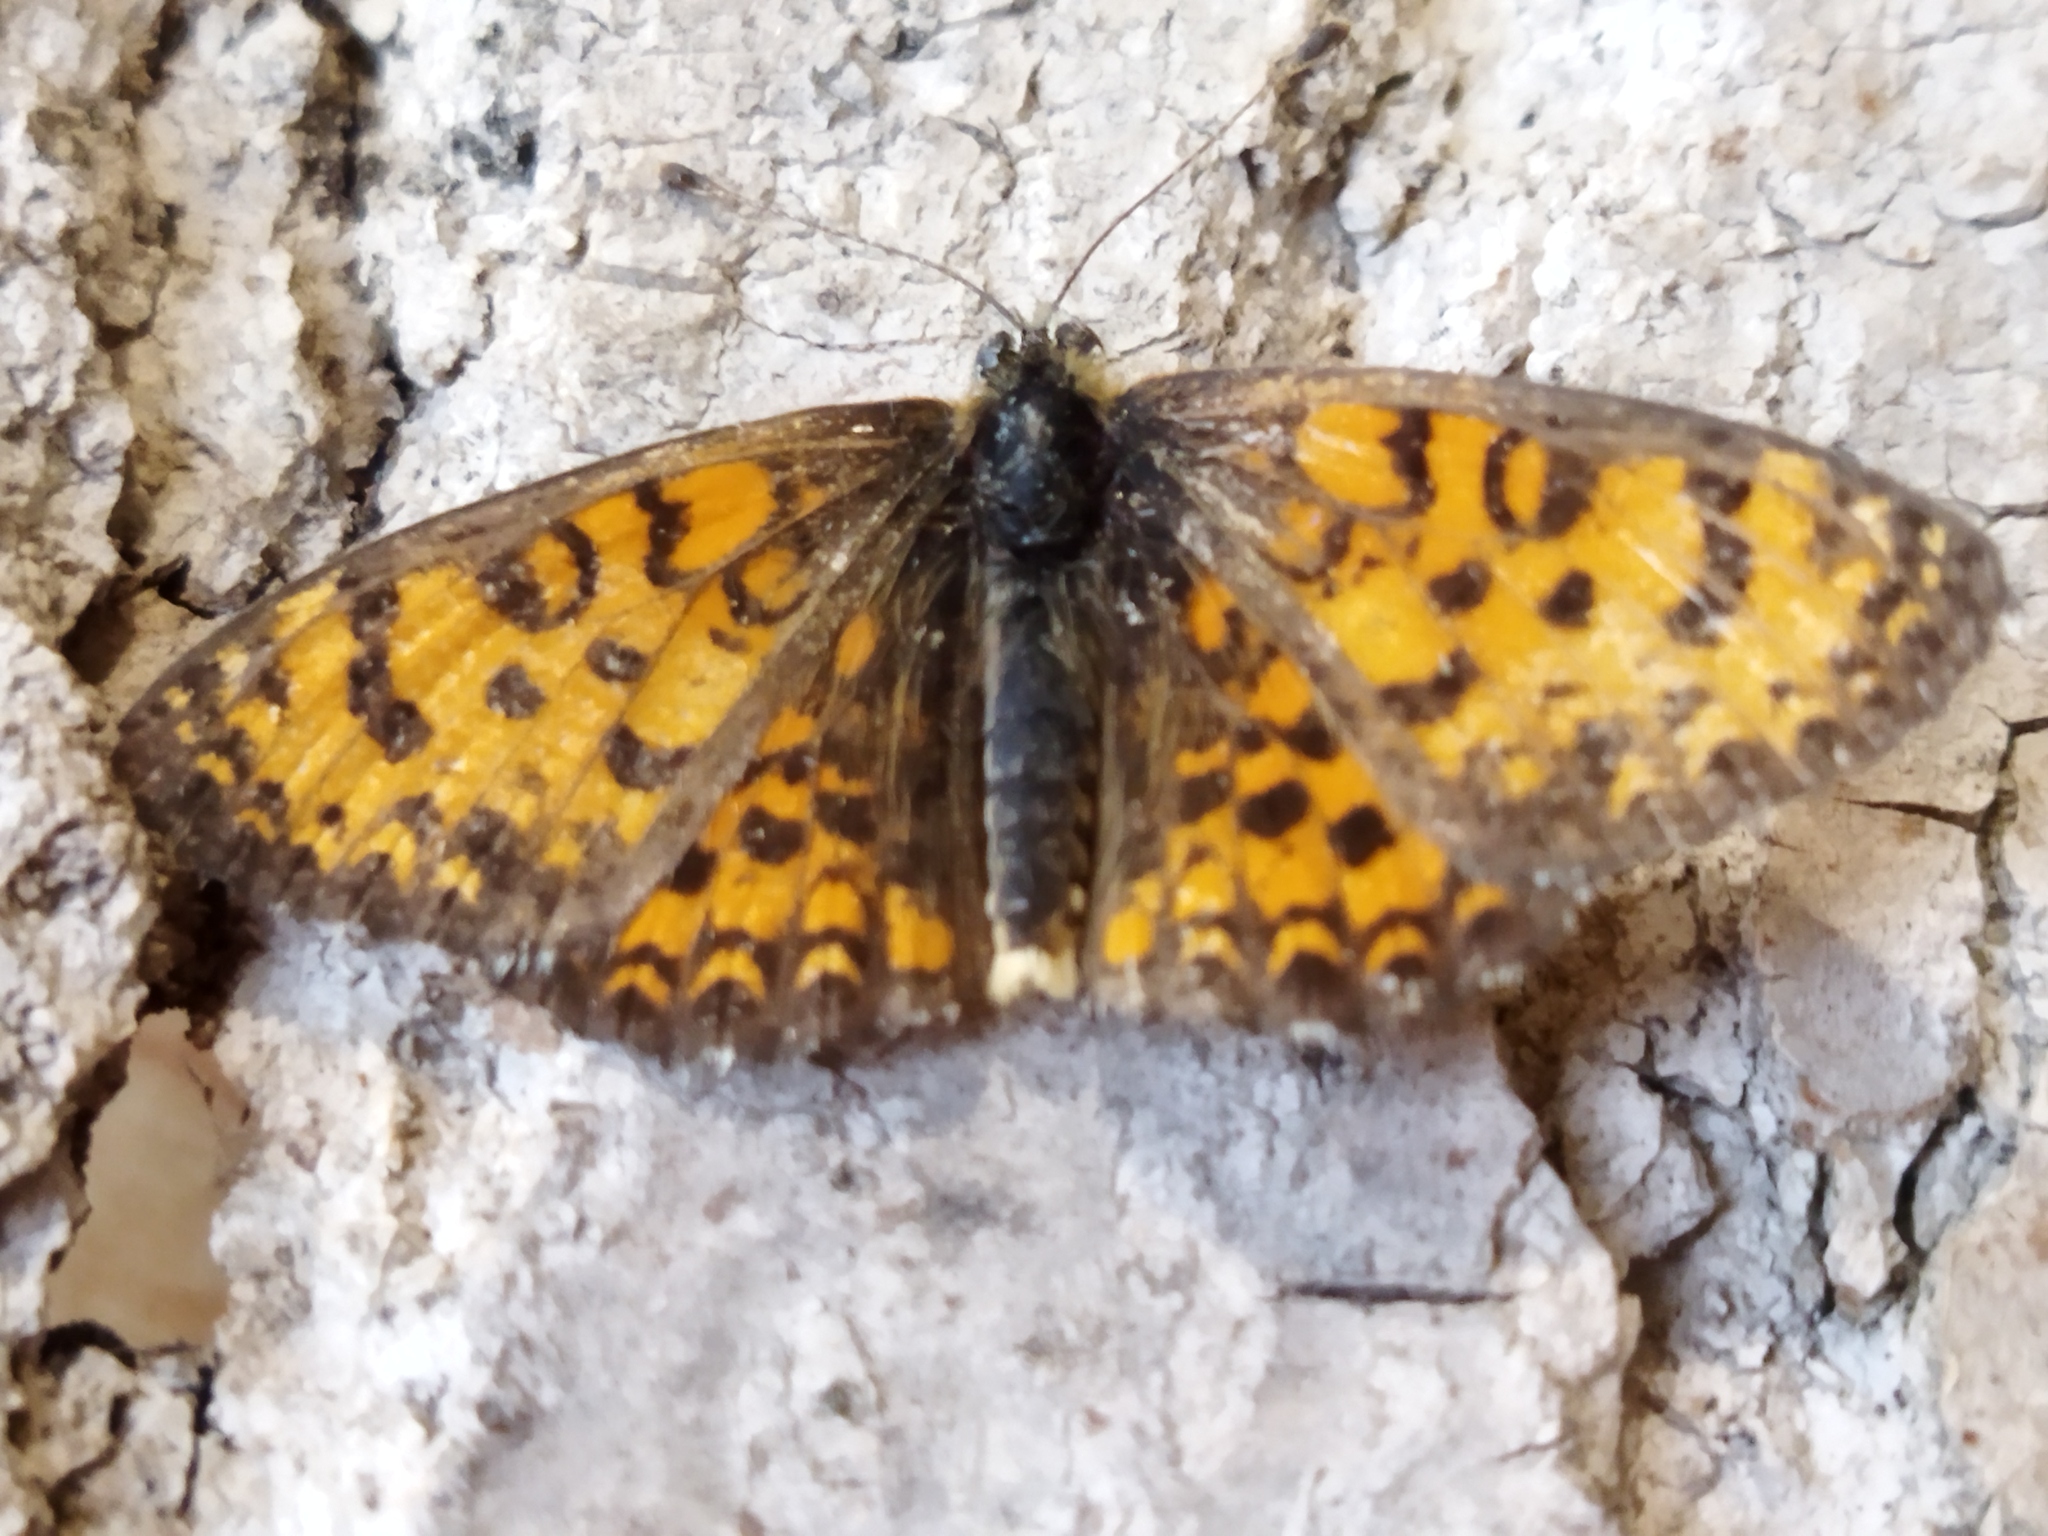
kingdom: Animalia
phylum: Arthropoda
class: Insecta
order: Lepidoptera
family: Nymphalidae
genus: Melitaea
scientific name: Melitaea trivia
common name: Lesser spotted fritillary
